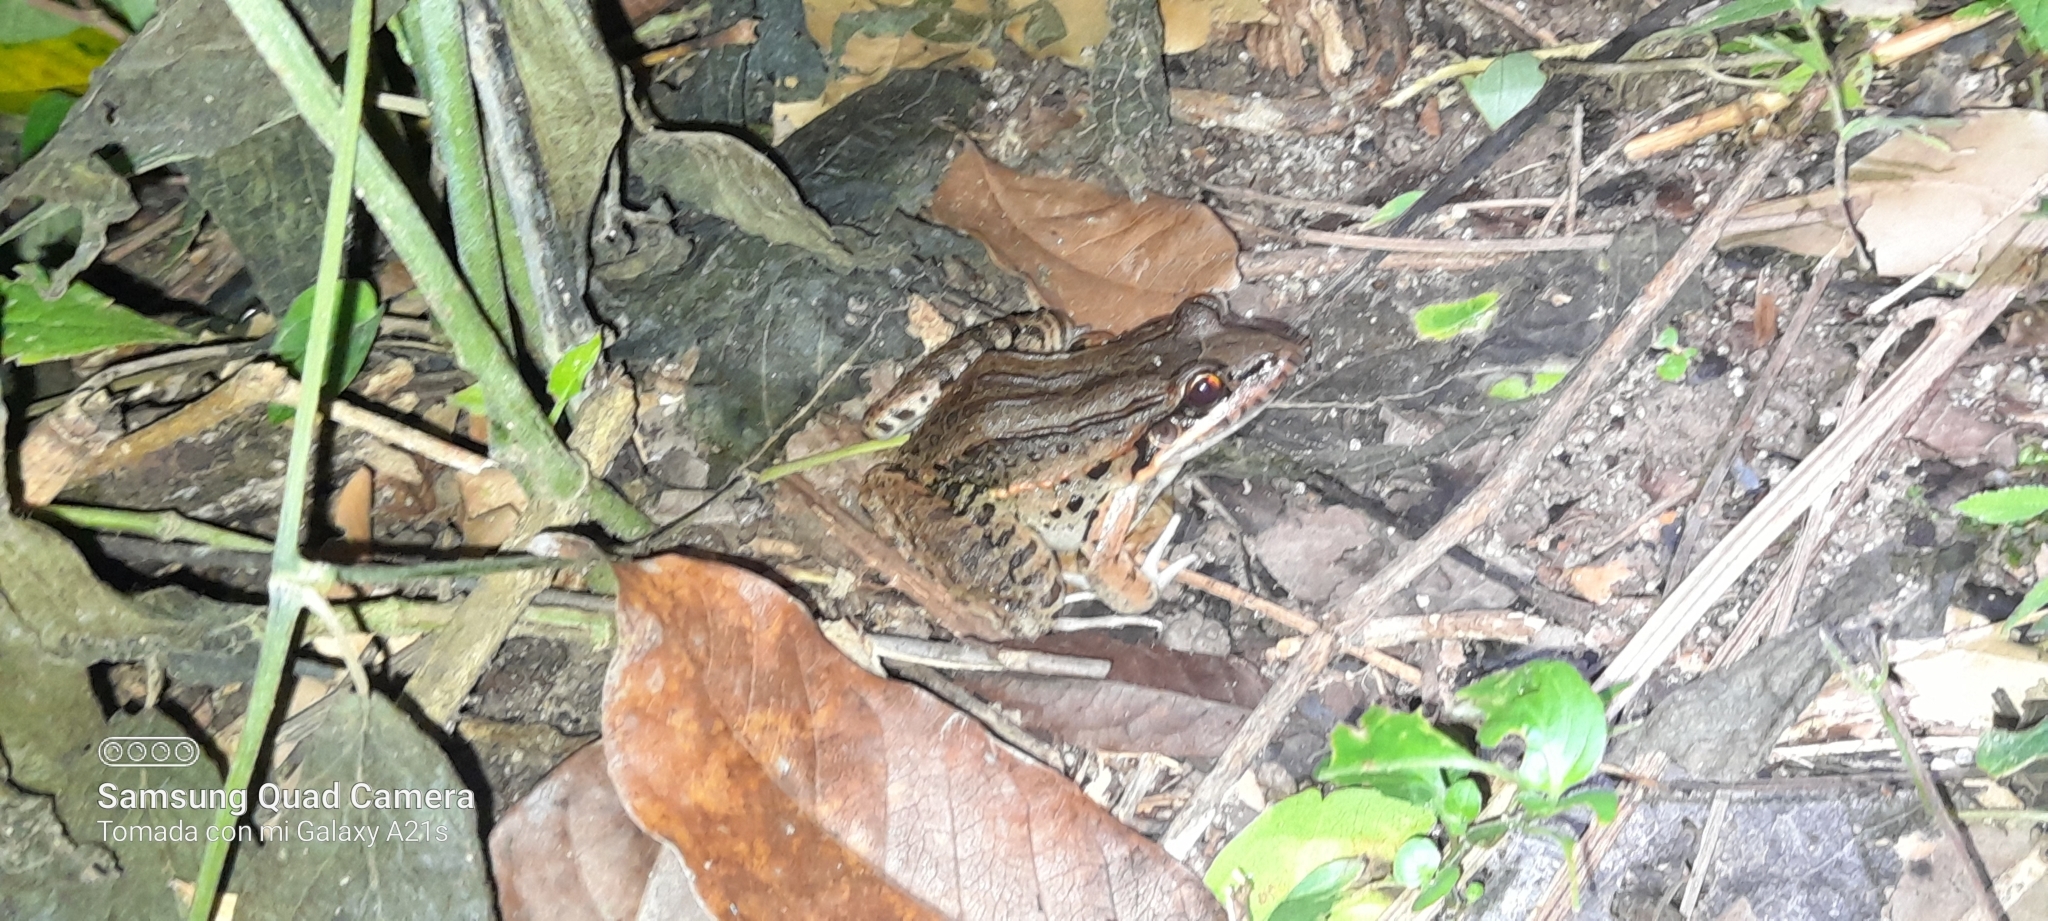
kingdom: Animalia
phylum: Chordata
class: Amphibia
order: Anura
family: Leptodactylidae
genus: Leptodactylus
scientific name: Leptodactylus insularum
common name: San miguel island frog
